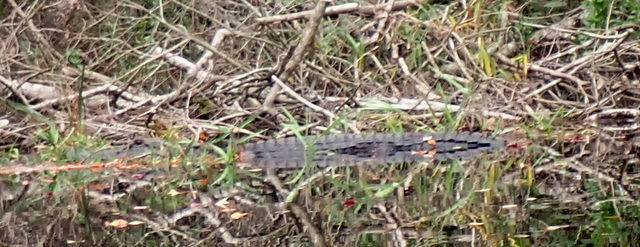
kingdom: Animalia
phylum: Chordata
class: Crocodylia
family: Alligatoridae
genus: Alligator
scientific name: Alligator mississippiensis
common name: American alligator
